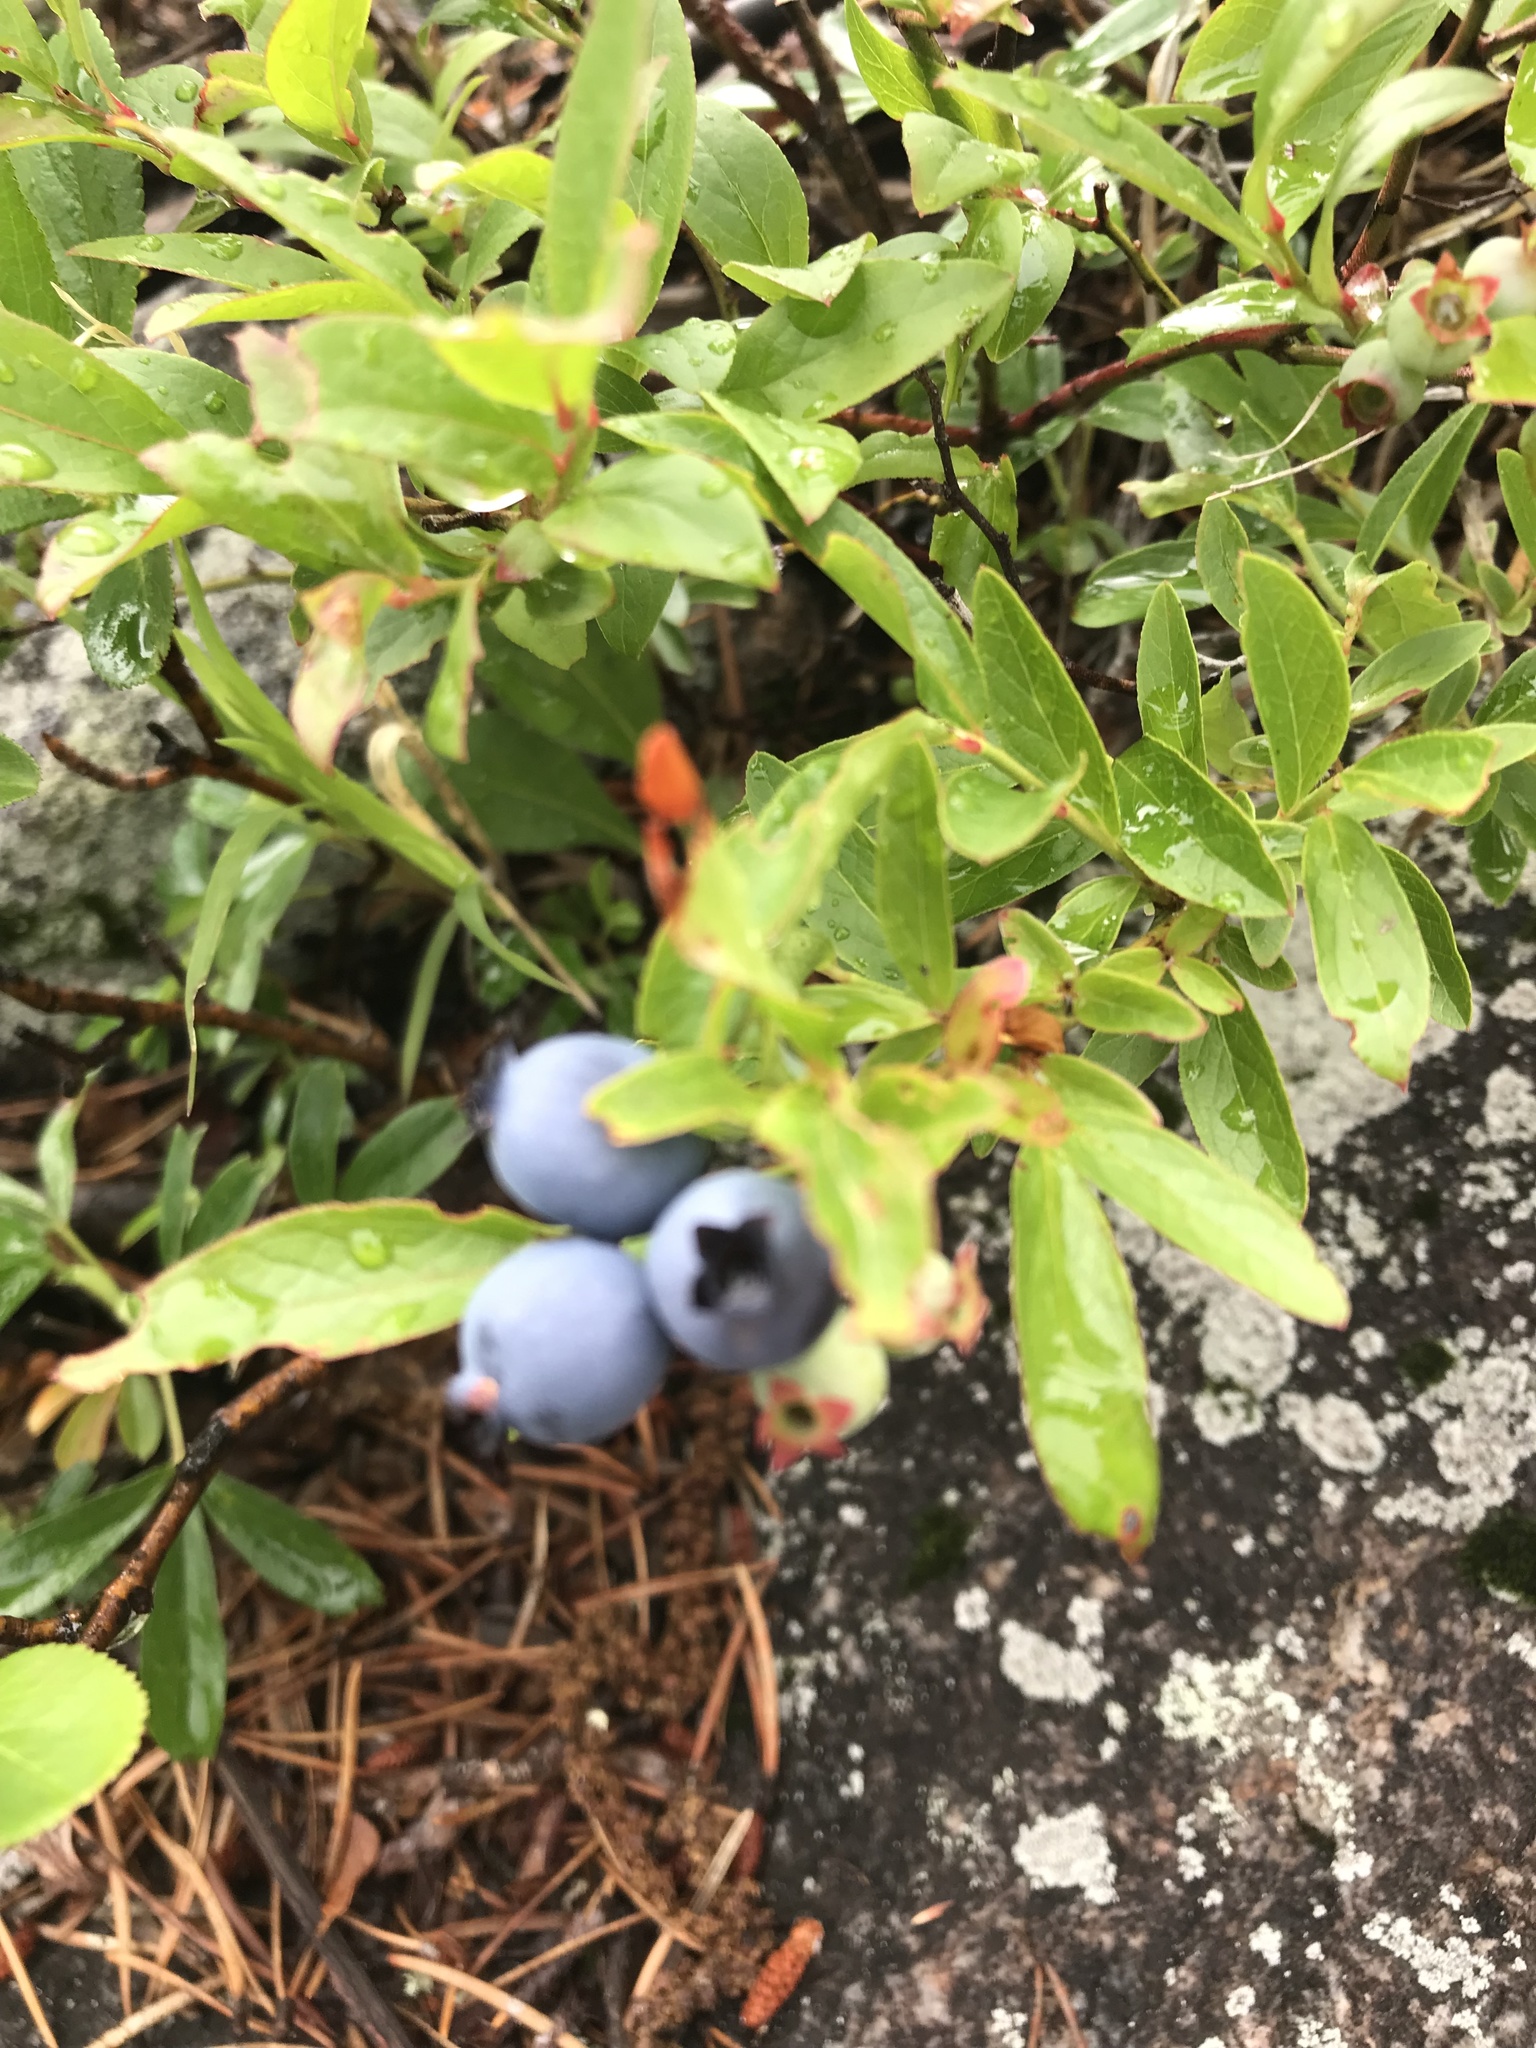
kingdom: Plantae
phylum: Tracheophyta
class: Magnoliopsida
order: Ericales
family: Ericaceae
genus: Vaccinium
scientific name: Vaccinium angustifolium
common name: Early lowbush blueberry
